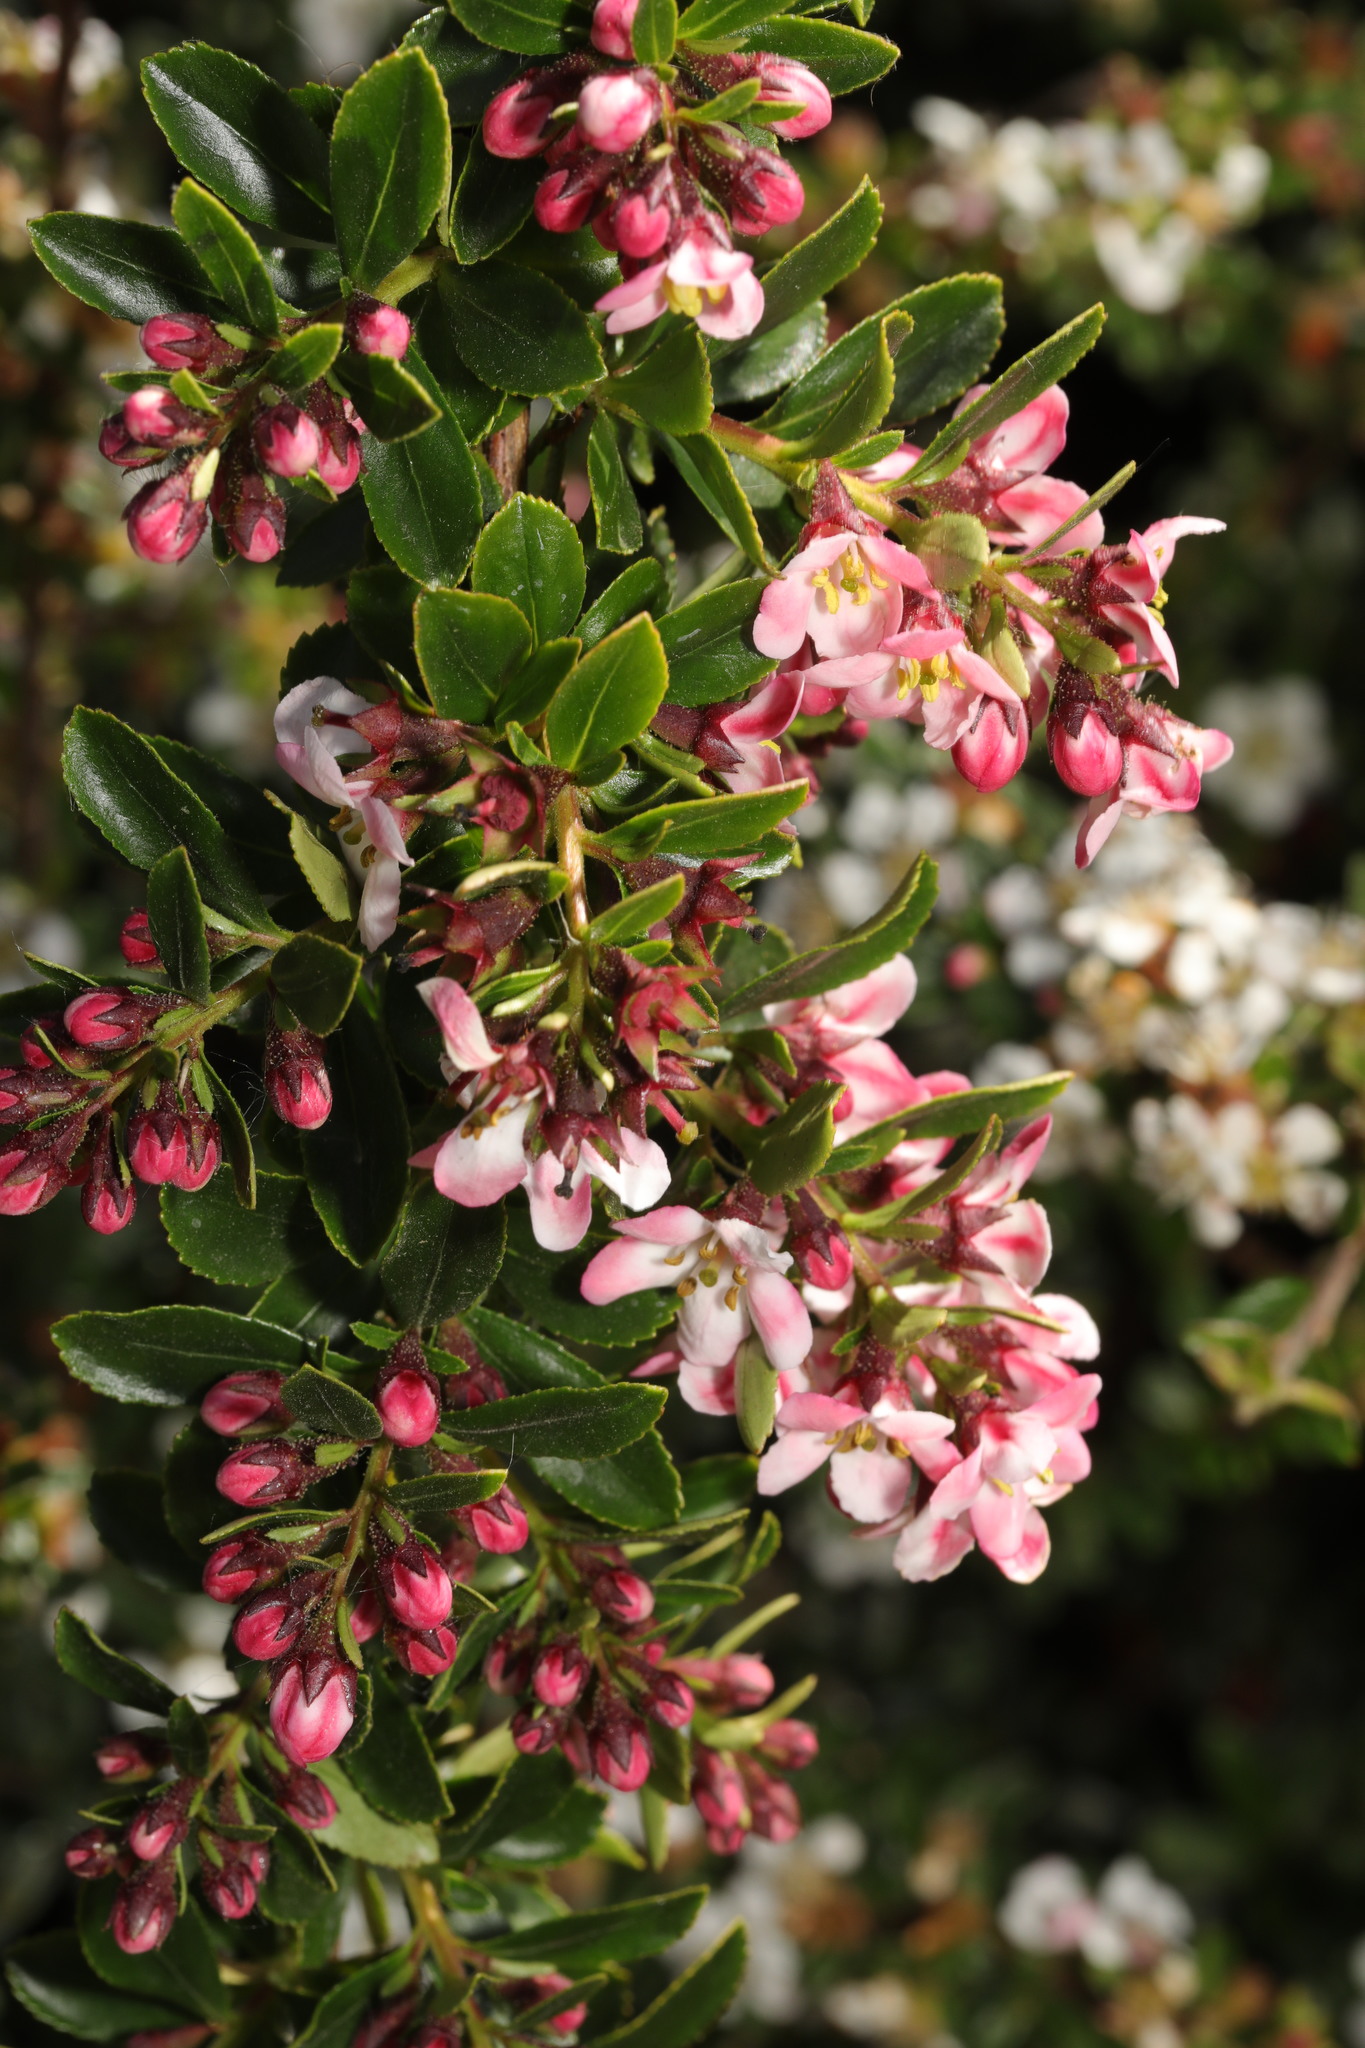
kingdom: Plantae
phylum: Tracheophyta
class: Magnoliopsida
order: Escalloniales
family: Escalloniaceae
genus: Escallonia
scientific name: Escallonia rubra
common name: Redclaws
